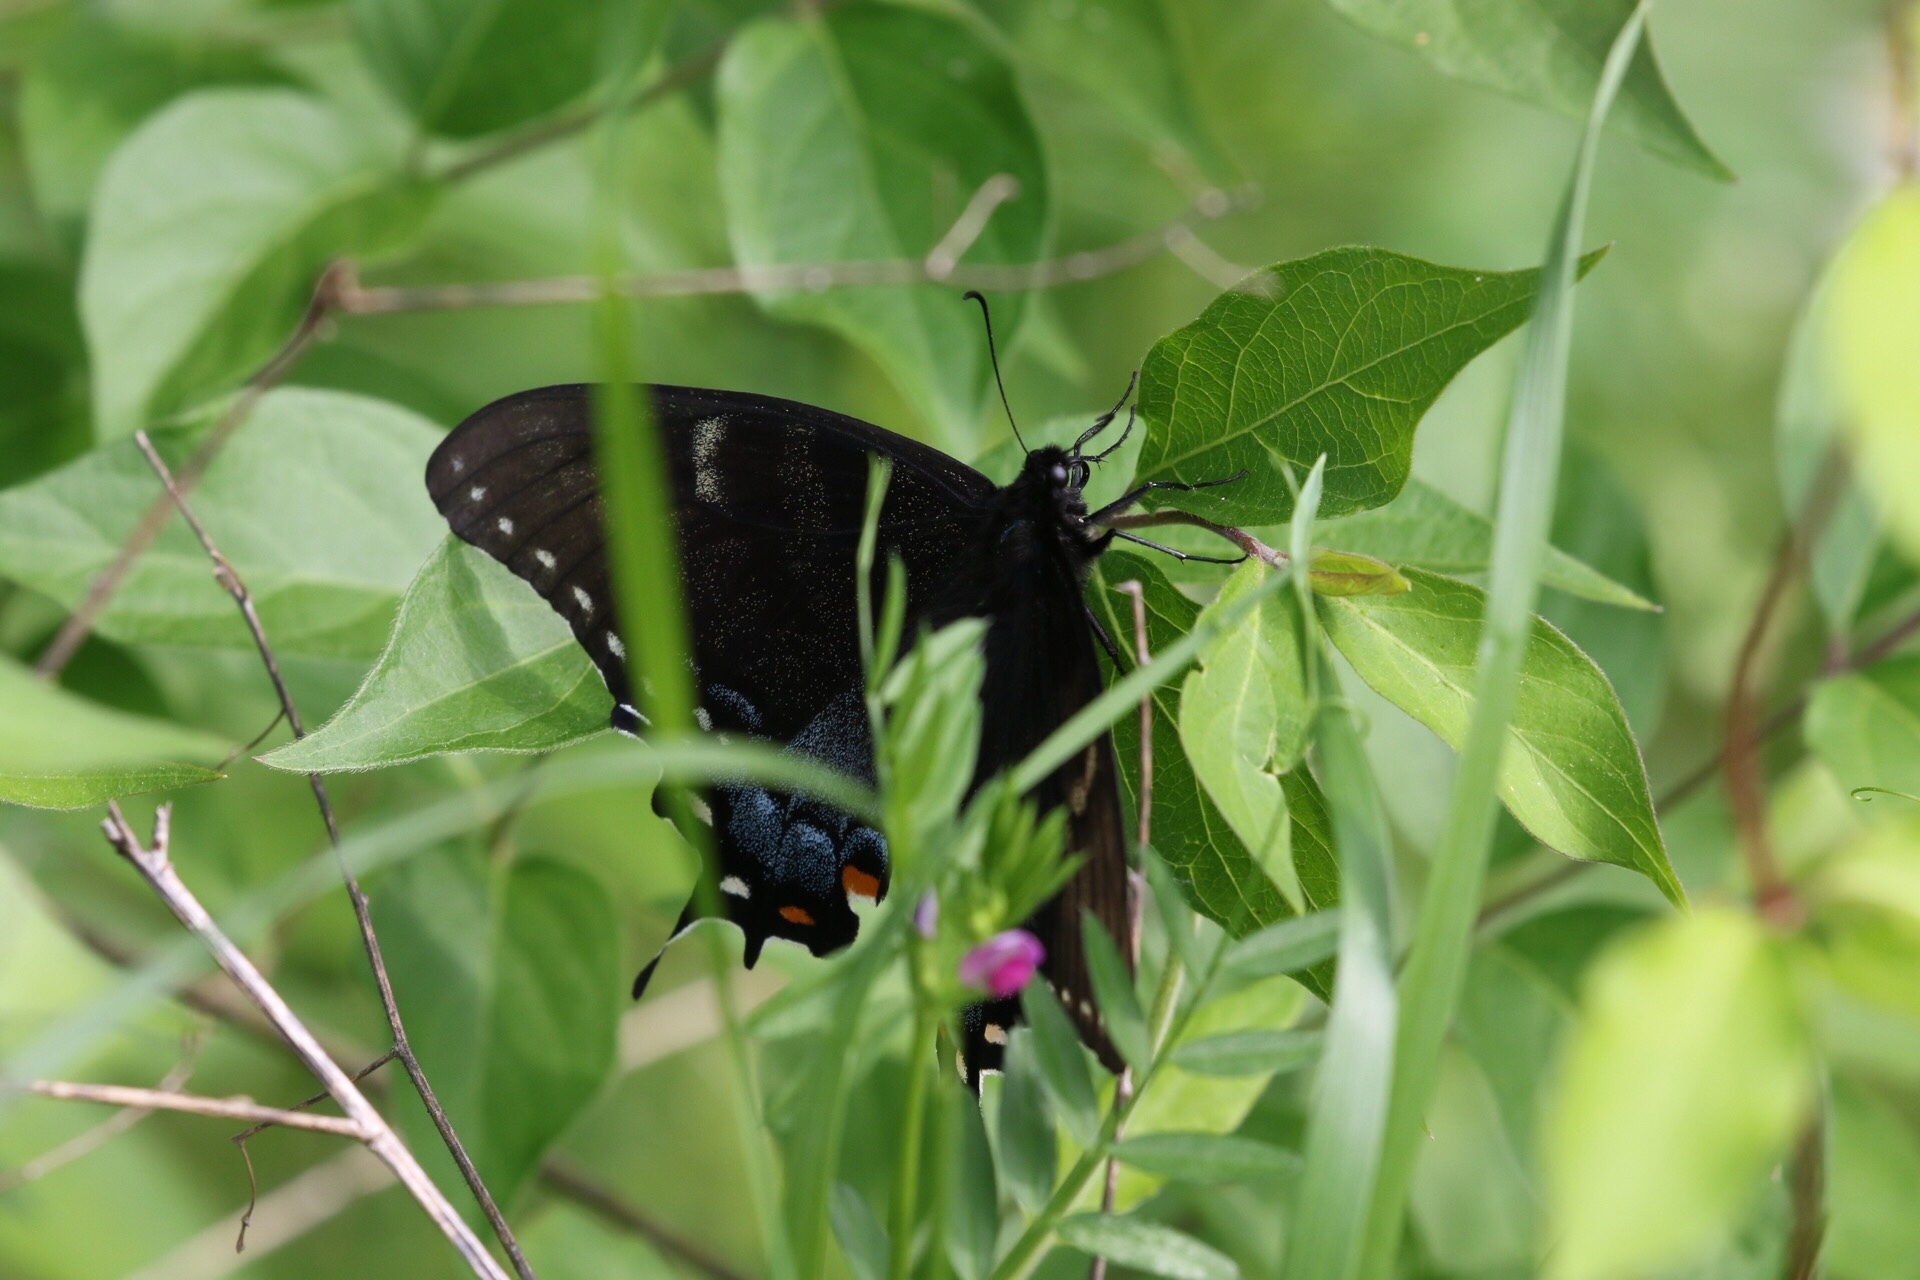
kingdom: Animalia
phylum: Arthropoda
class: Insecta
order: Lepidoptera
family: Papilionidae
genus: Papilio
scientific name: Papilio glaucus
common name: Tiger swallowtail
